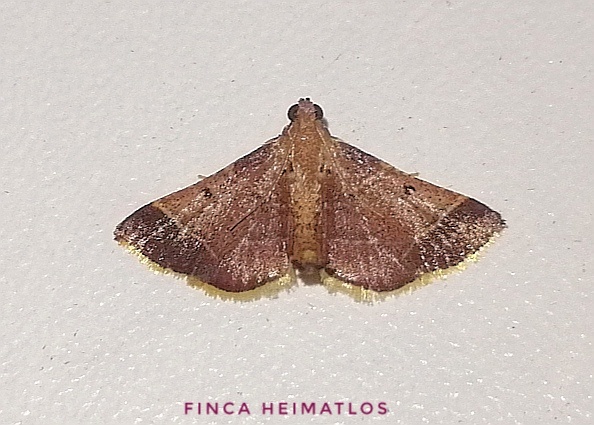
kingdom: Animalia
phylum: Arthropoda
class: Insecta
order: Lepidoptera
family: Pyralidae
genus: Hypsopygia
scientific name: Hypsopygia amoenalis
